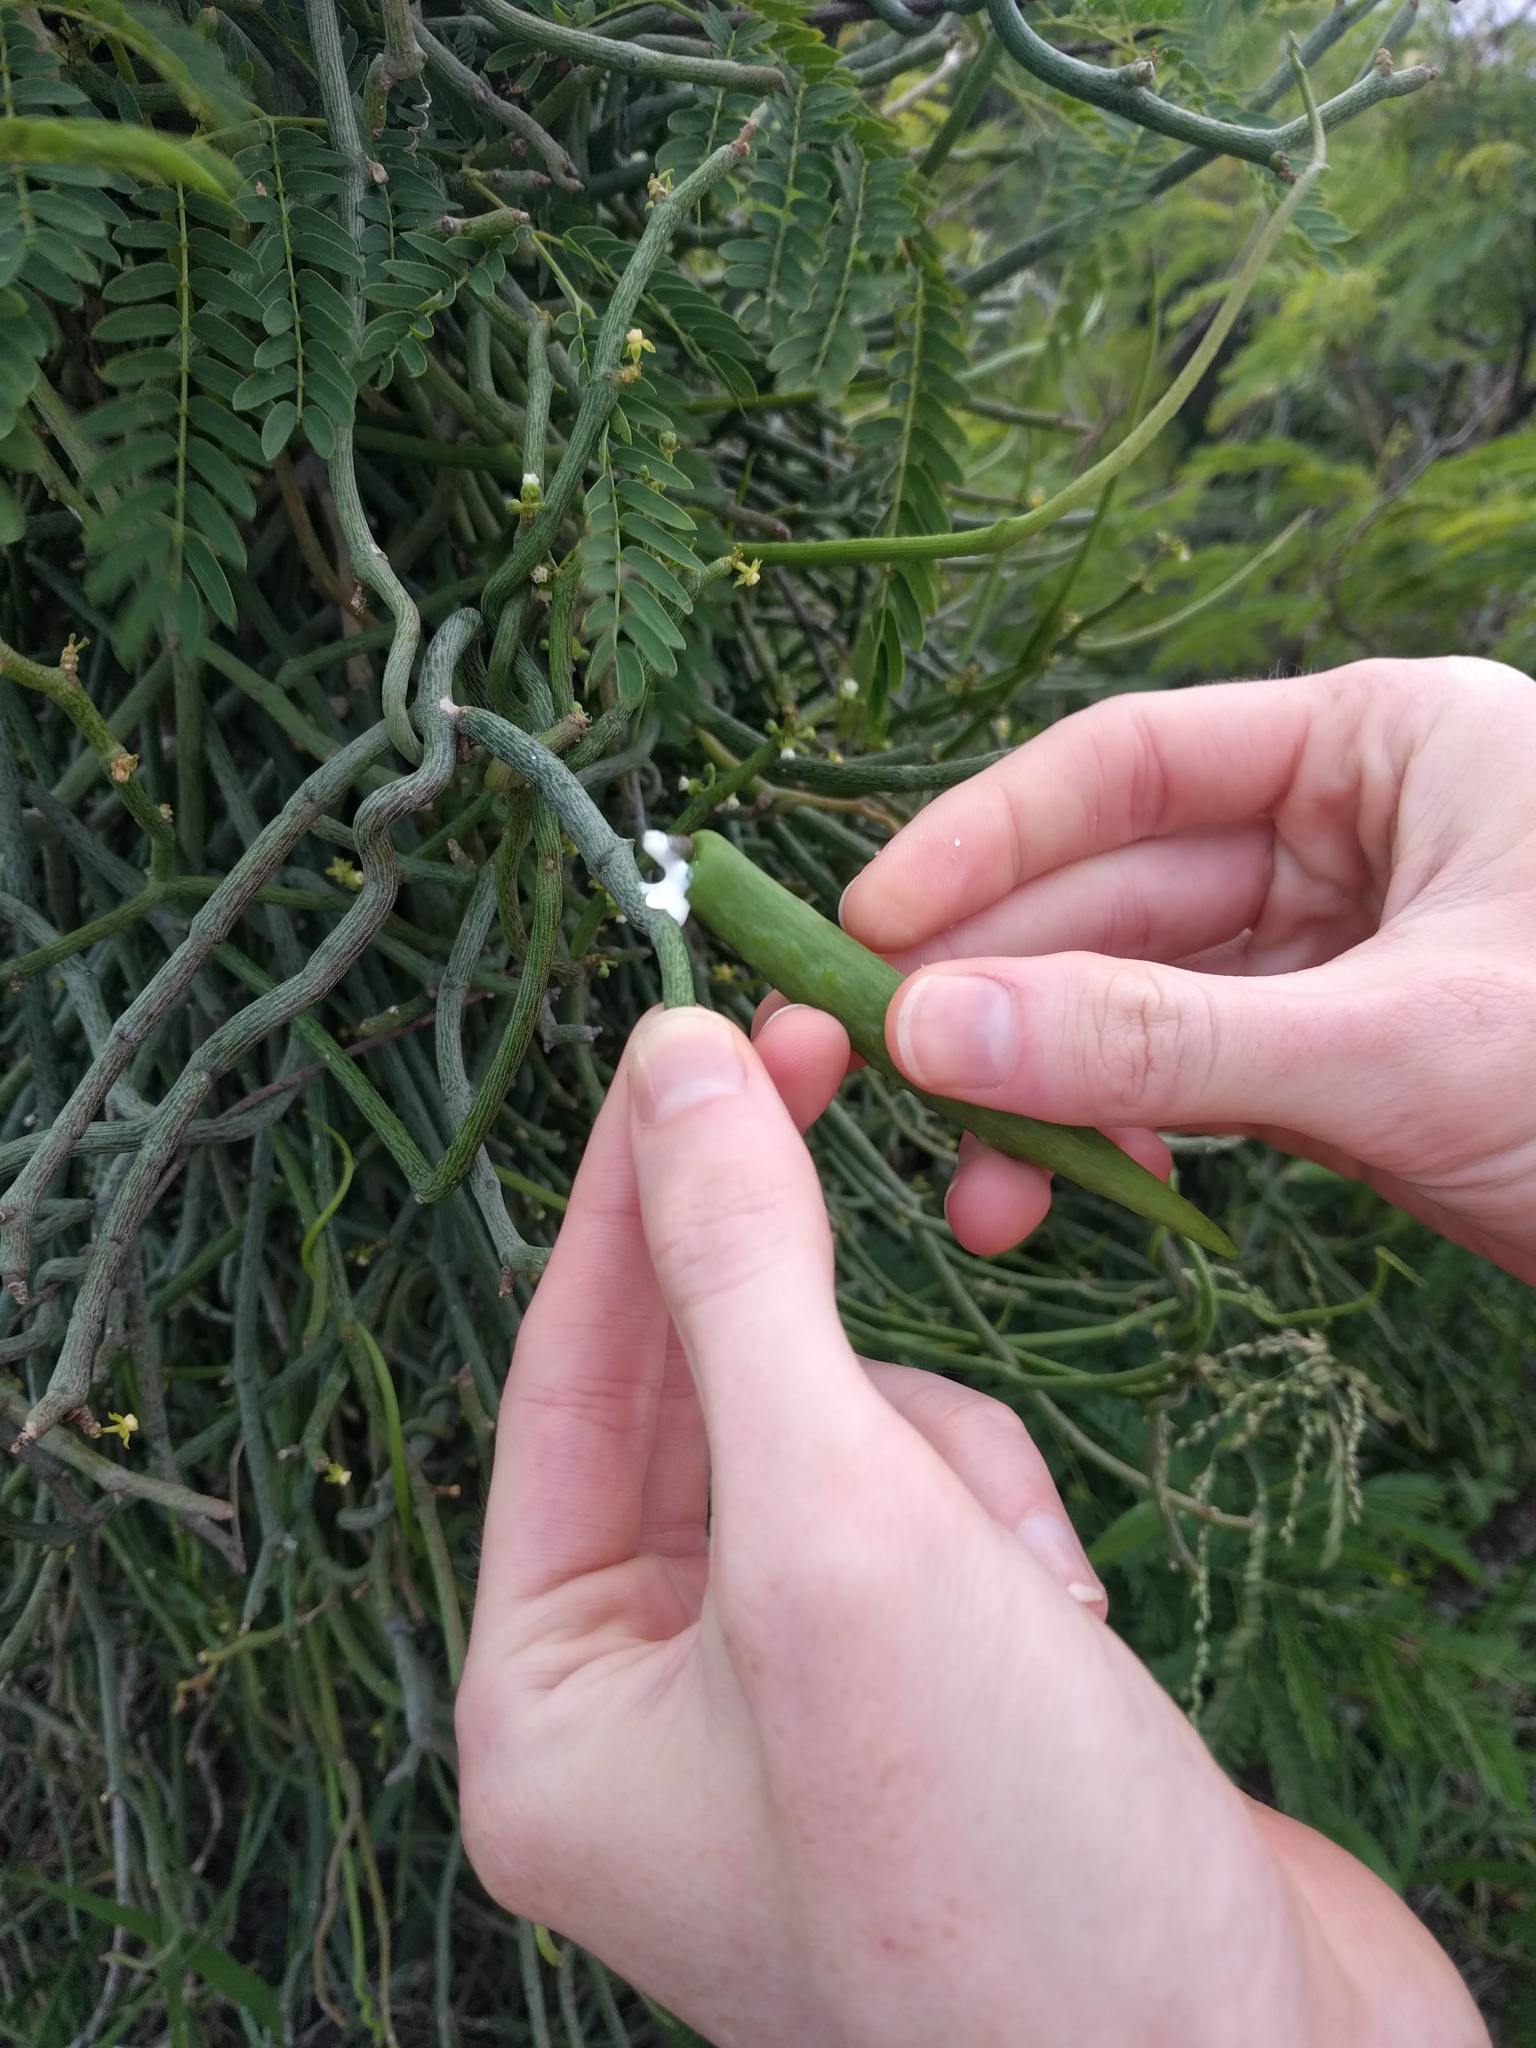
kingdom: Plantae
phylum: Tracheophyta
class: Magnoliopsida
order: Gentianales
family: Apocynaceae
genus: Cynanchum
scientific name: Cynanchum gerrardi
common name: Swallow-wort
